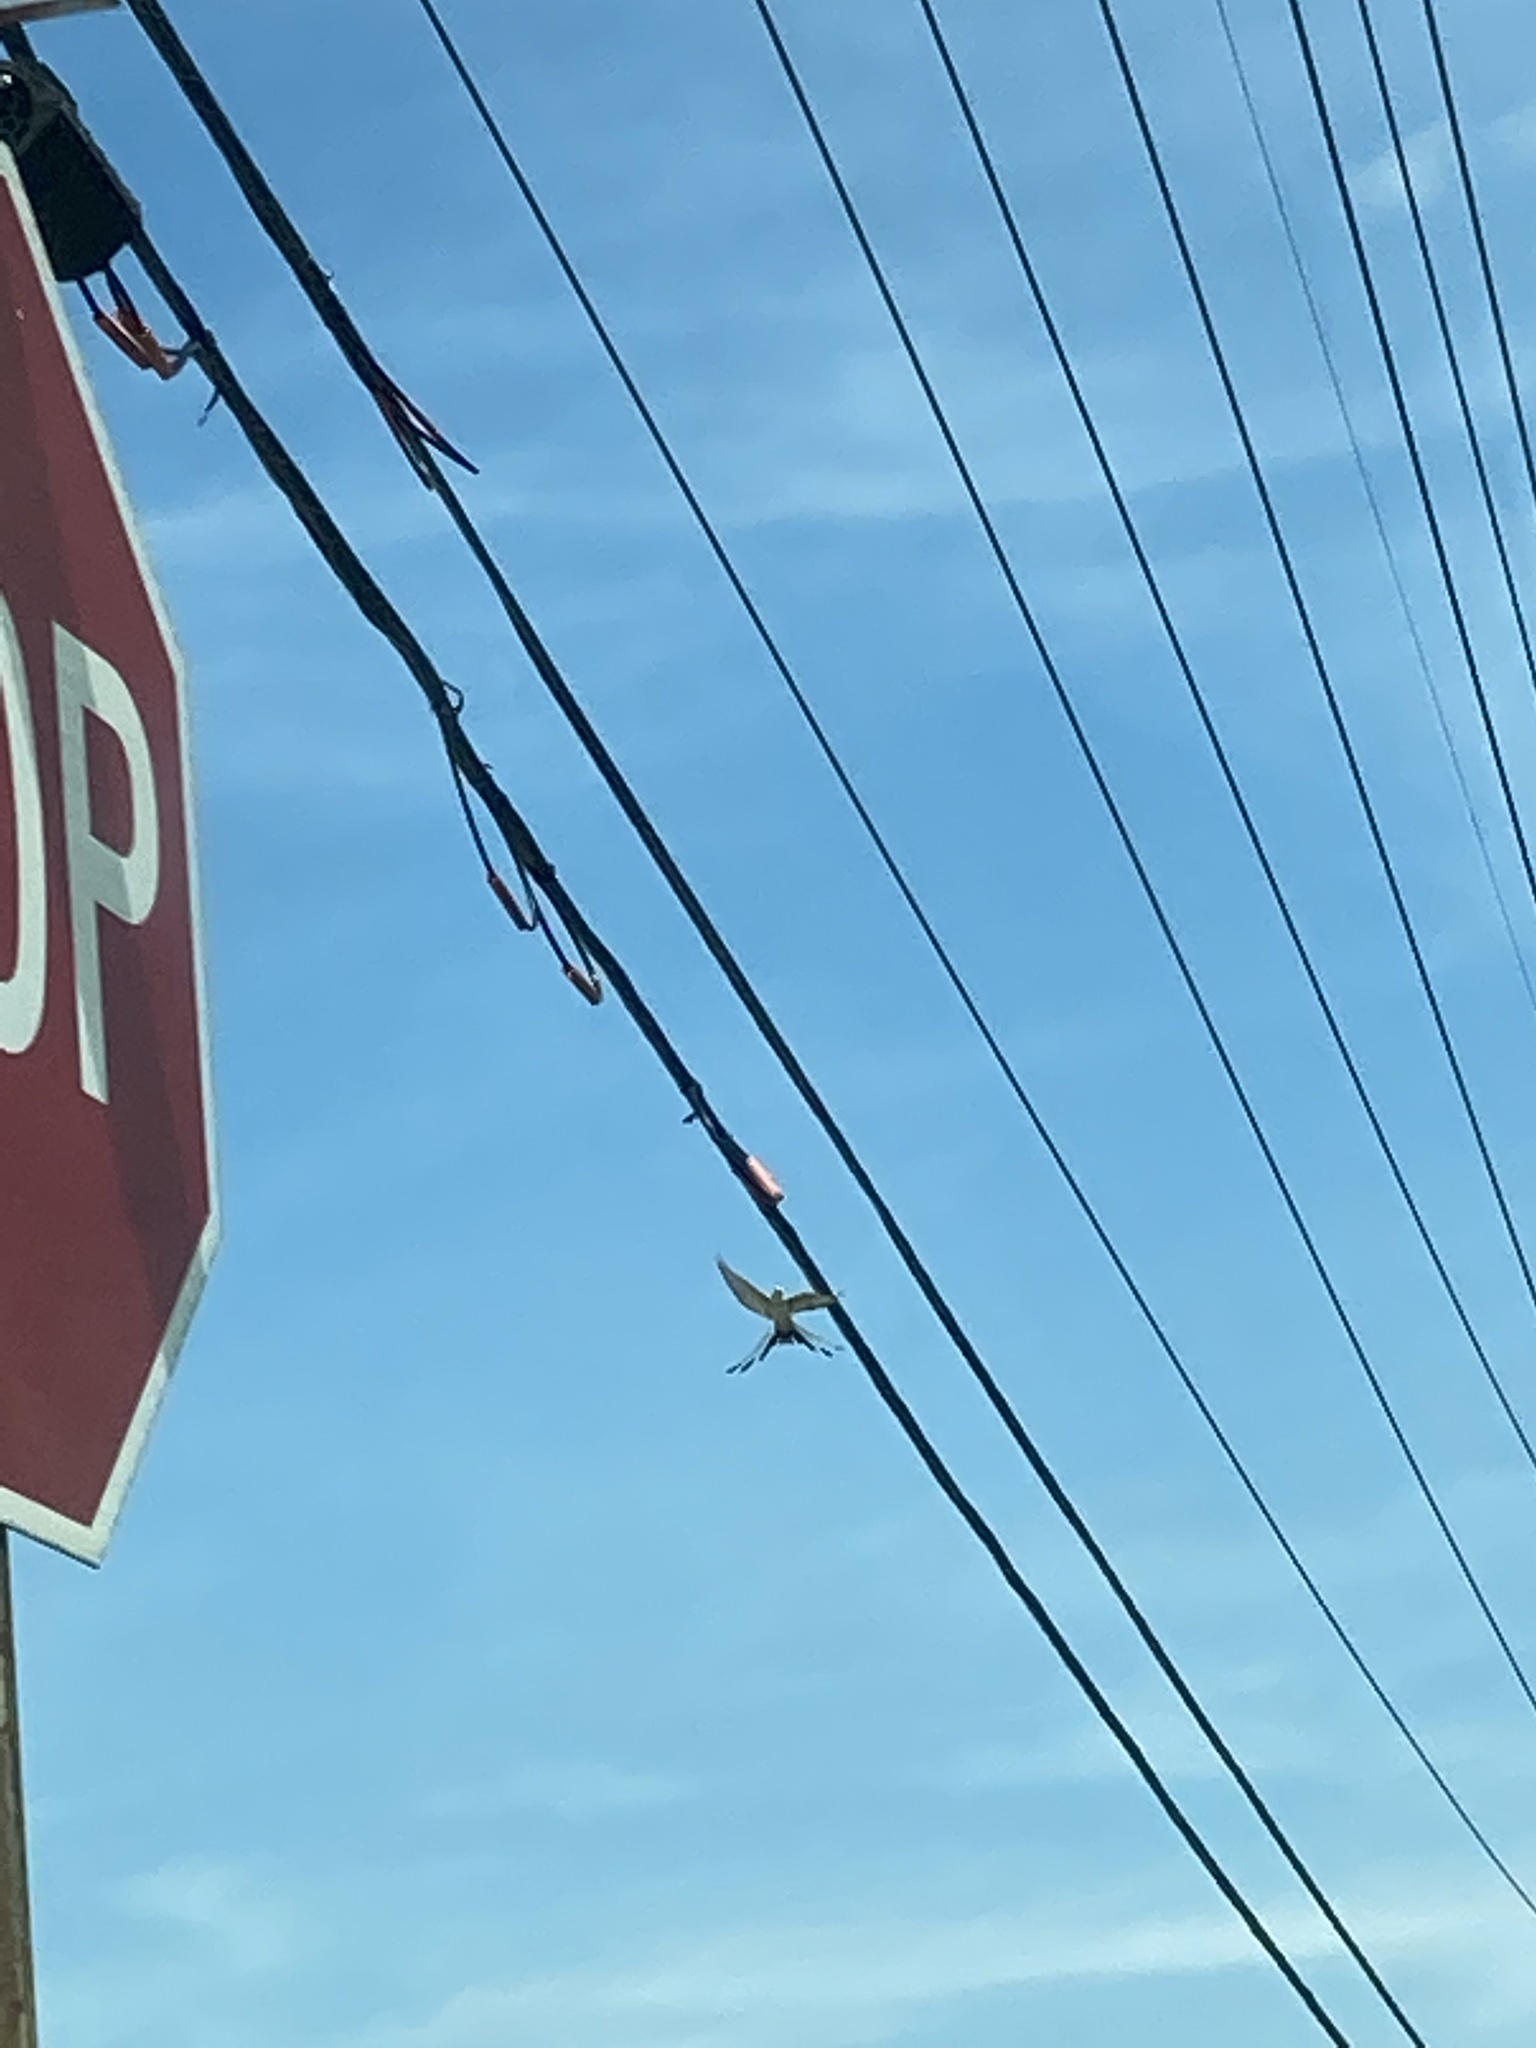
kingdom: Animalia
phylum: Chordata
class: Aves
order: Passeriformes
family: Tyrannidae
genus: Tyrannus
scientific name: Tyrannus forficatus
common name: Scissor-tailed flycatcher
